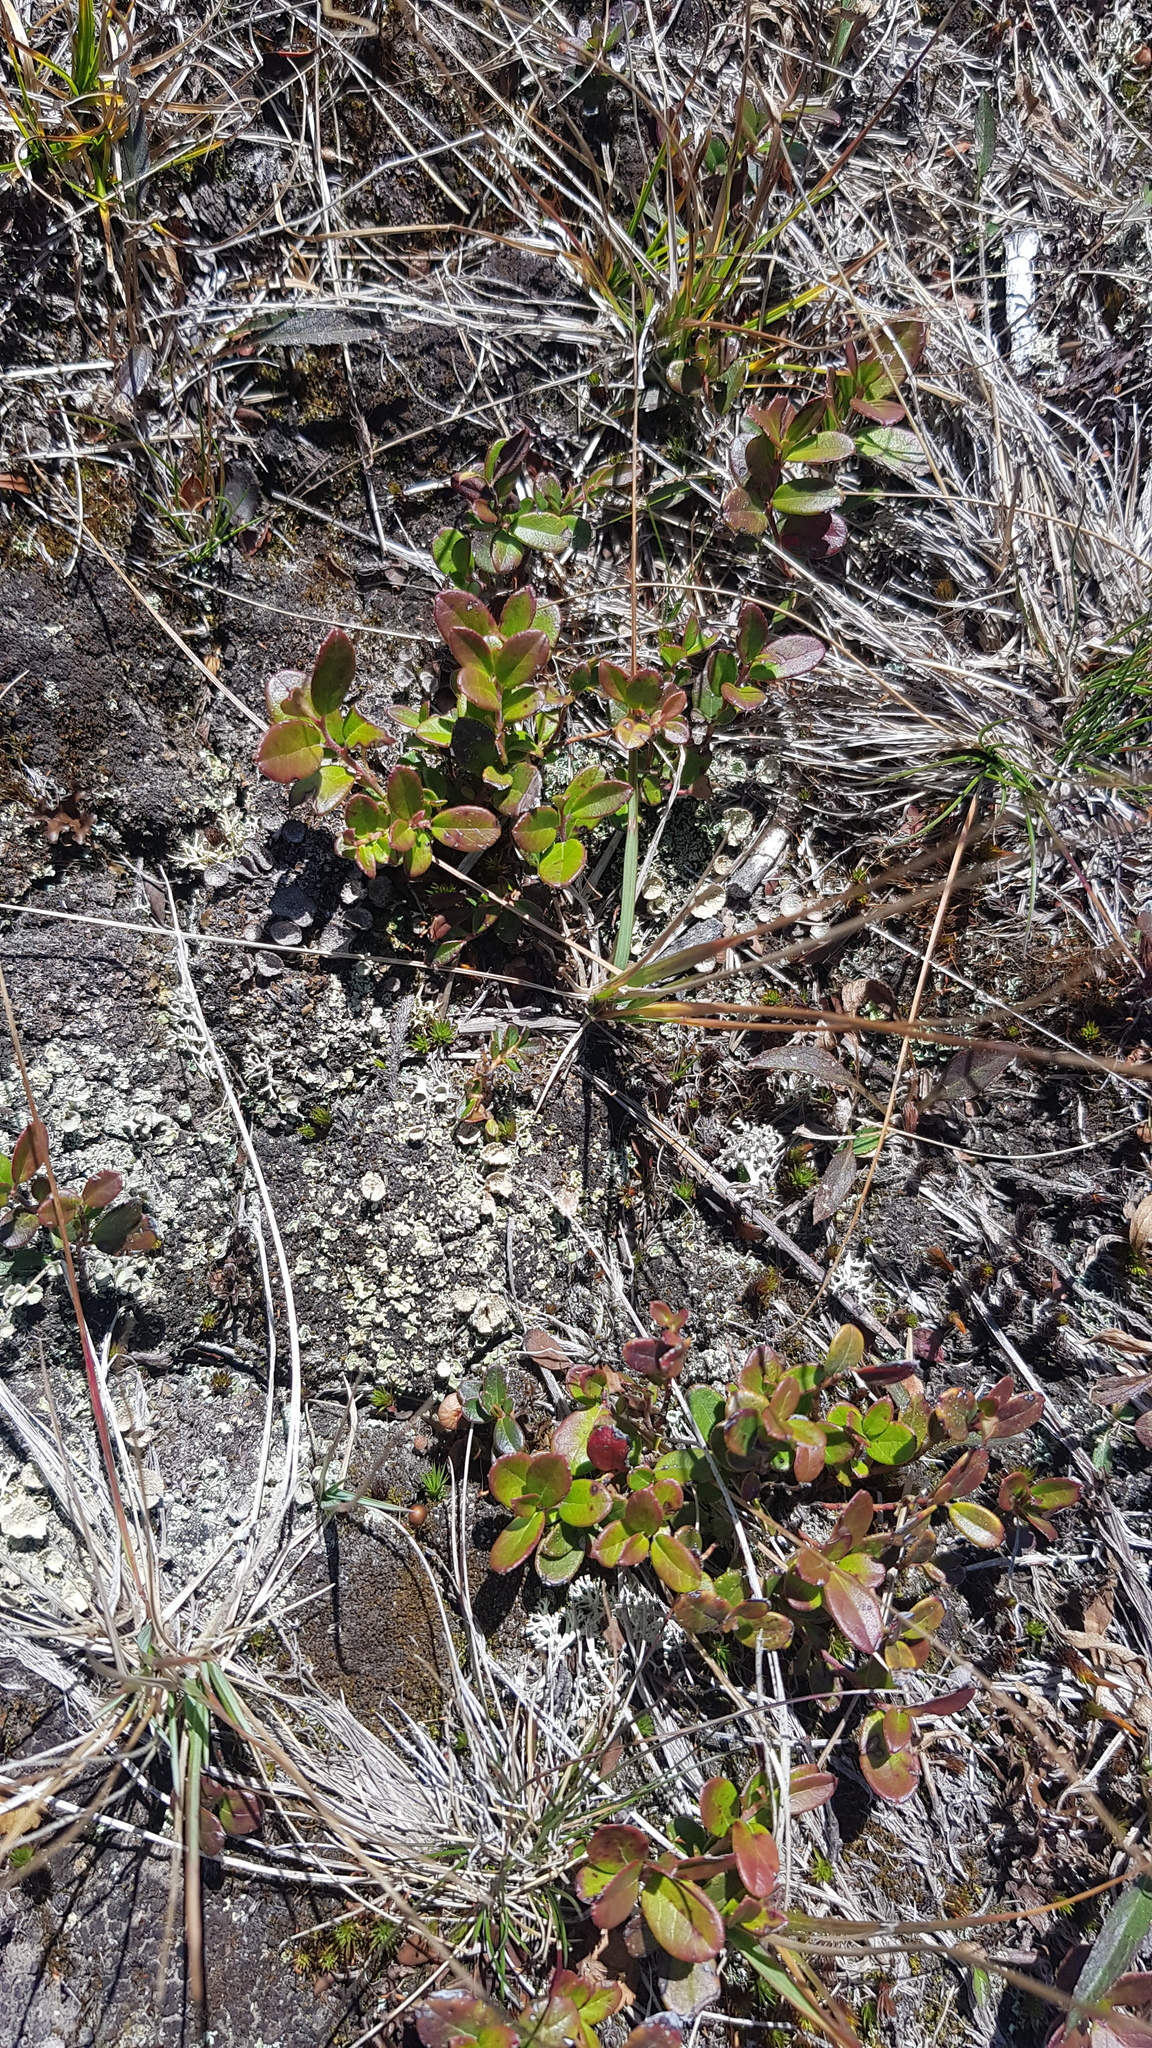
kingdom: Plantae
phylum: Tracheophyta
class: Magnoliopsida
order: Ericales
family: Ericaceae
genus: Vaccinium
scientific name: Vaccinium uliginosum
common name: Bog bilberry
